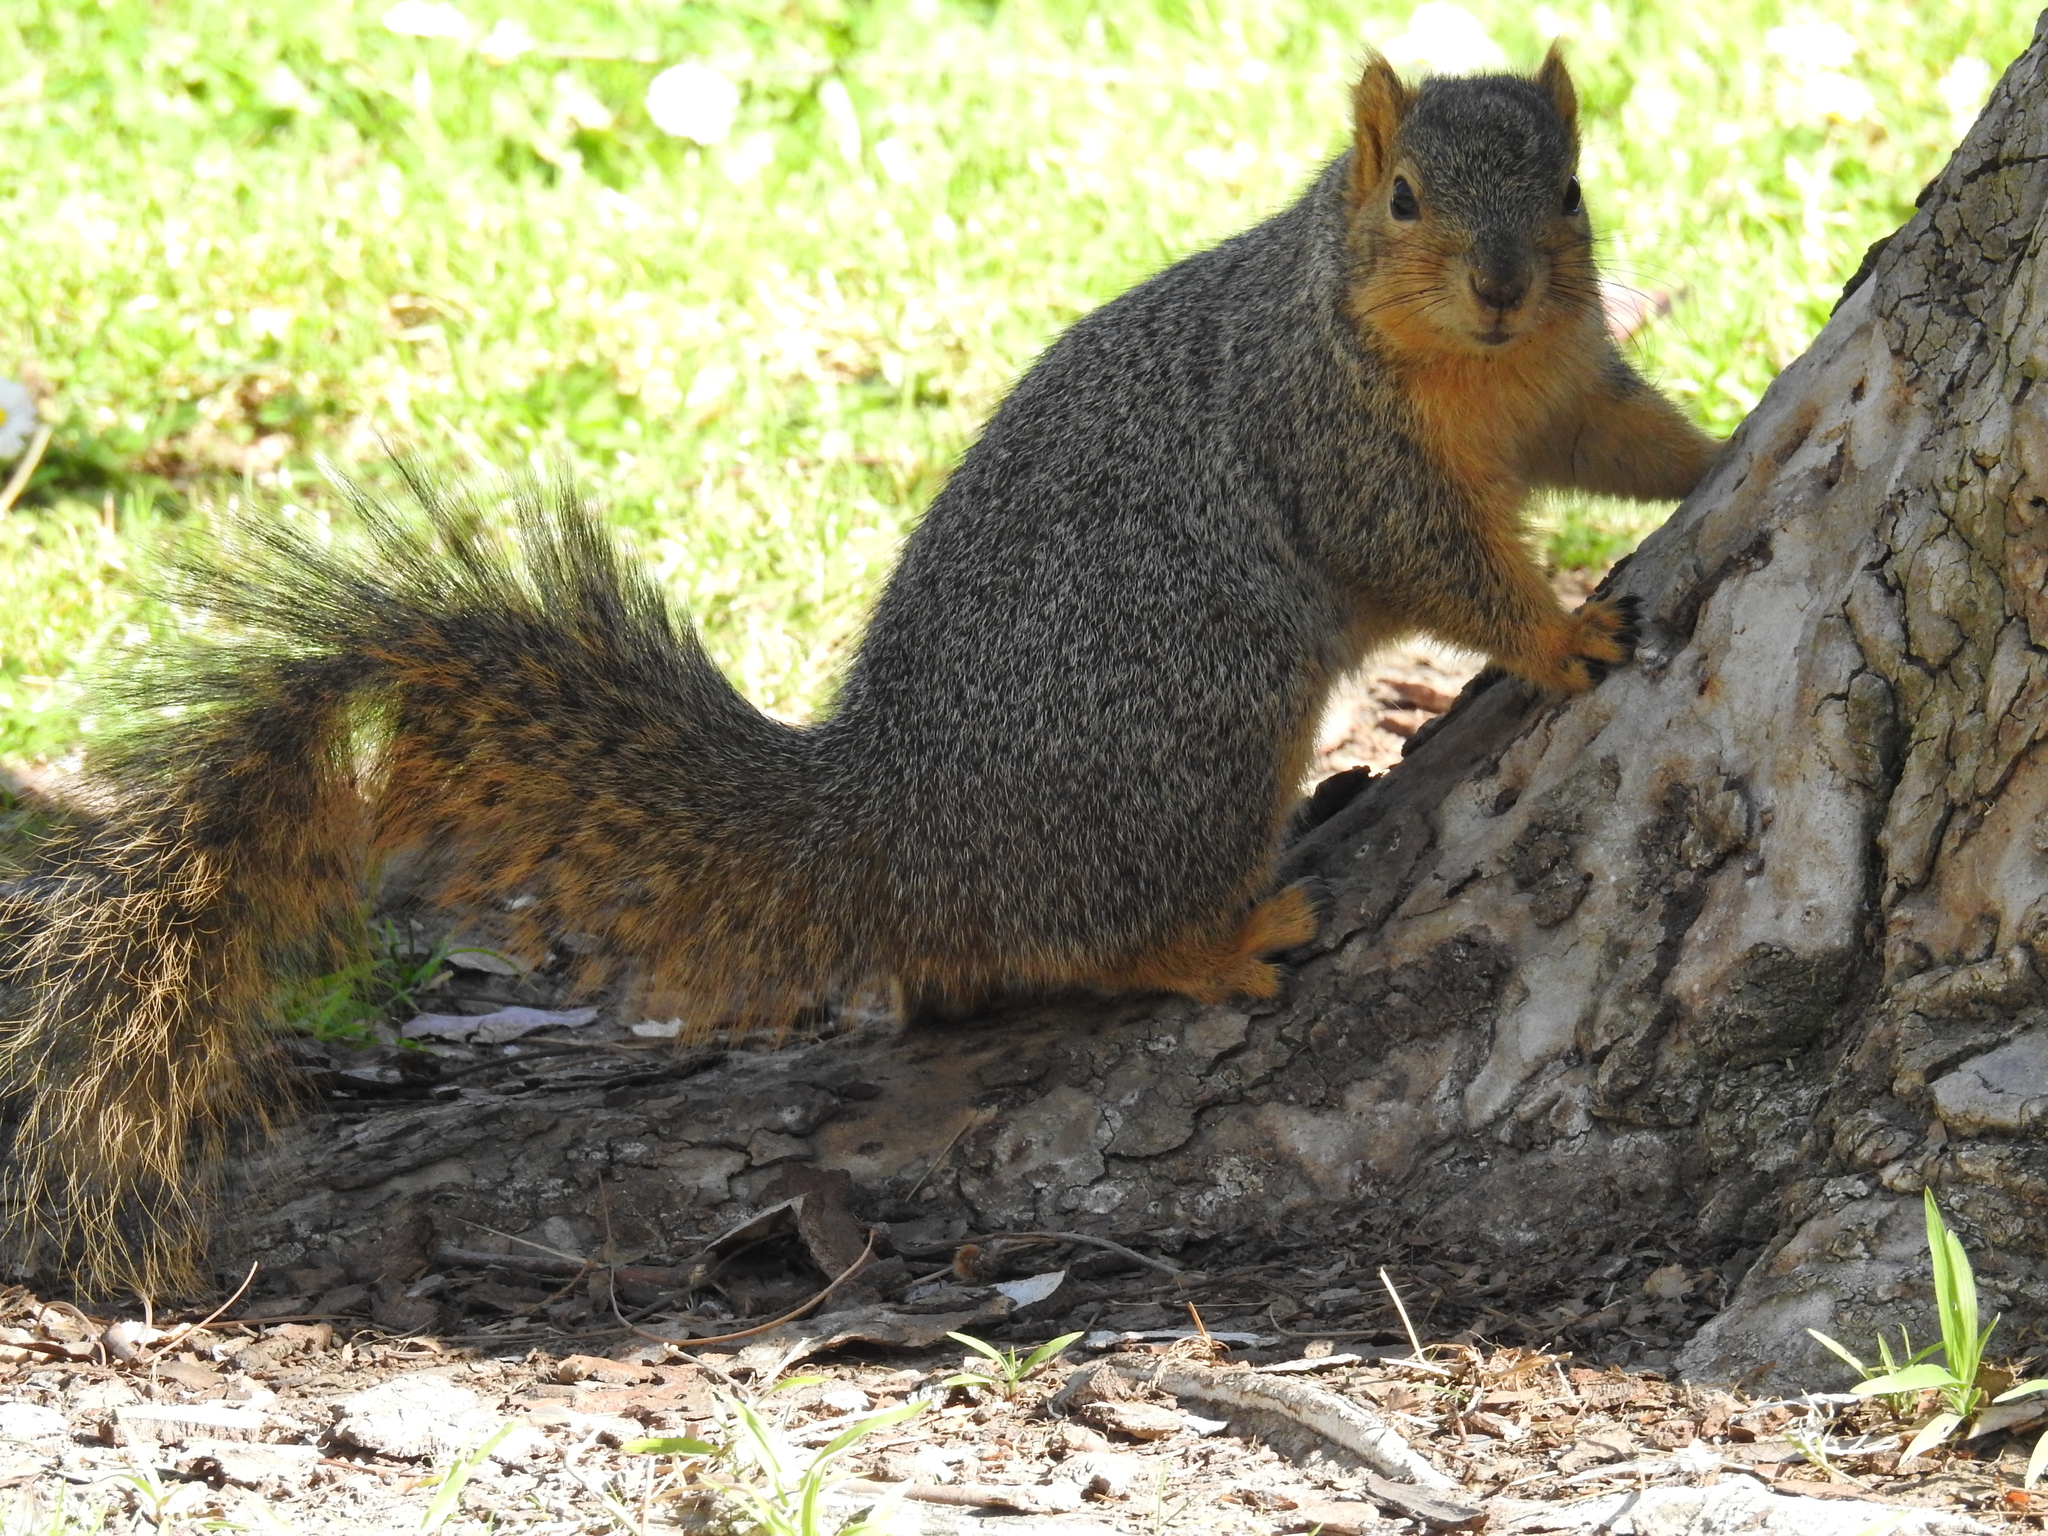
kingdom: Animalia
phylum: Chordata
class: Mammalia
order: Rodentia
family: Sciuridae
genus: Sciurus
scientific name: Sciurus niger
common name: Fox squirrel
